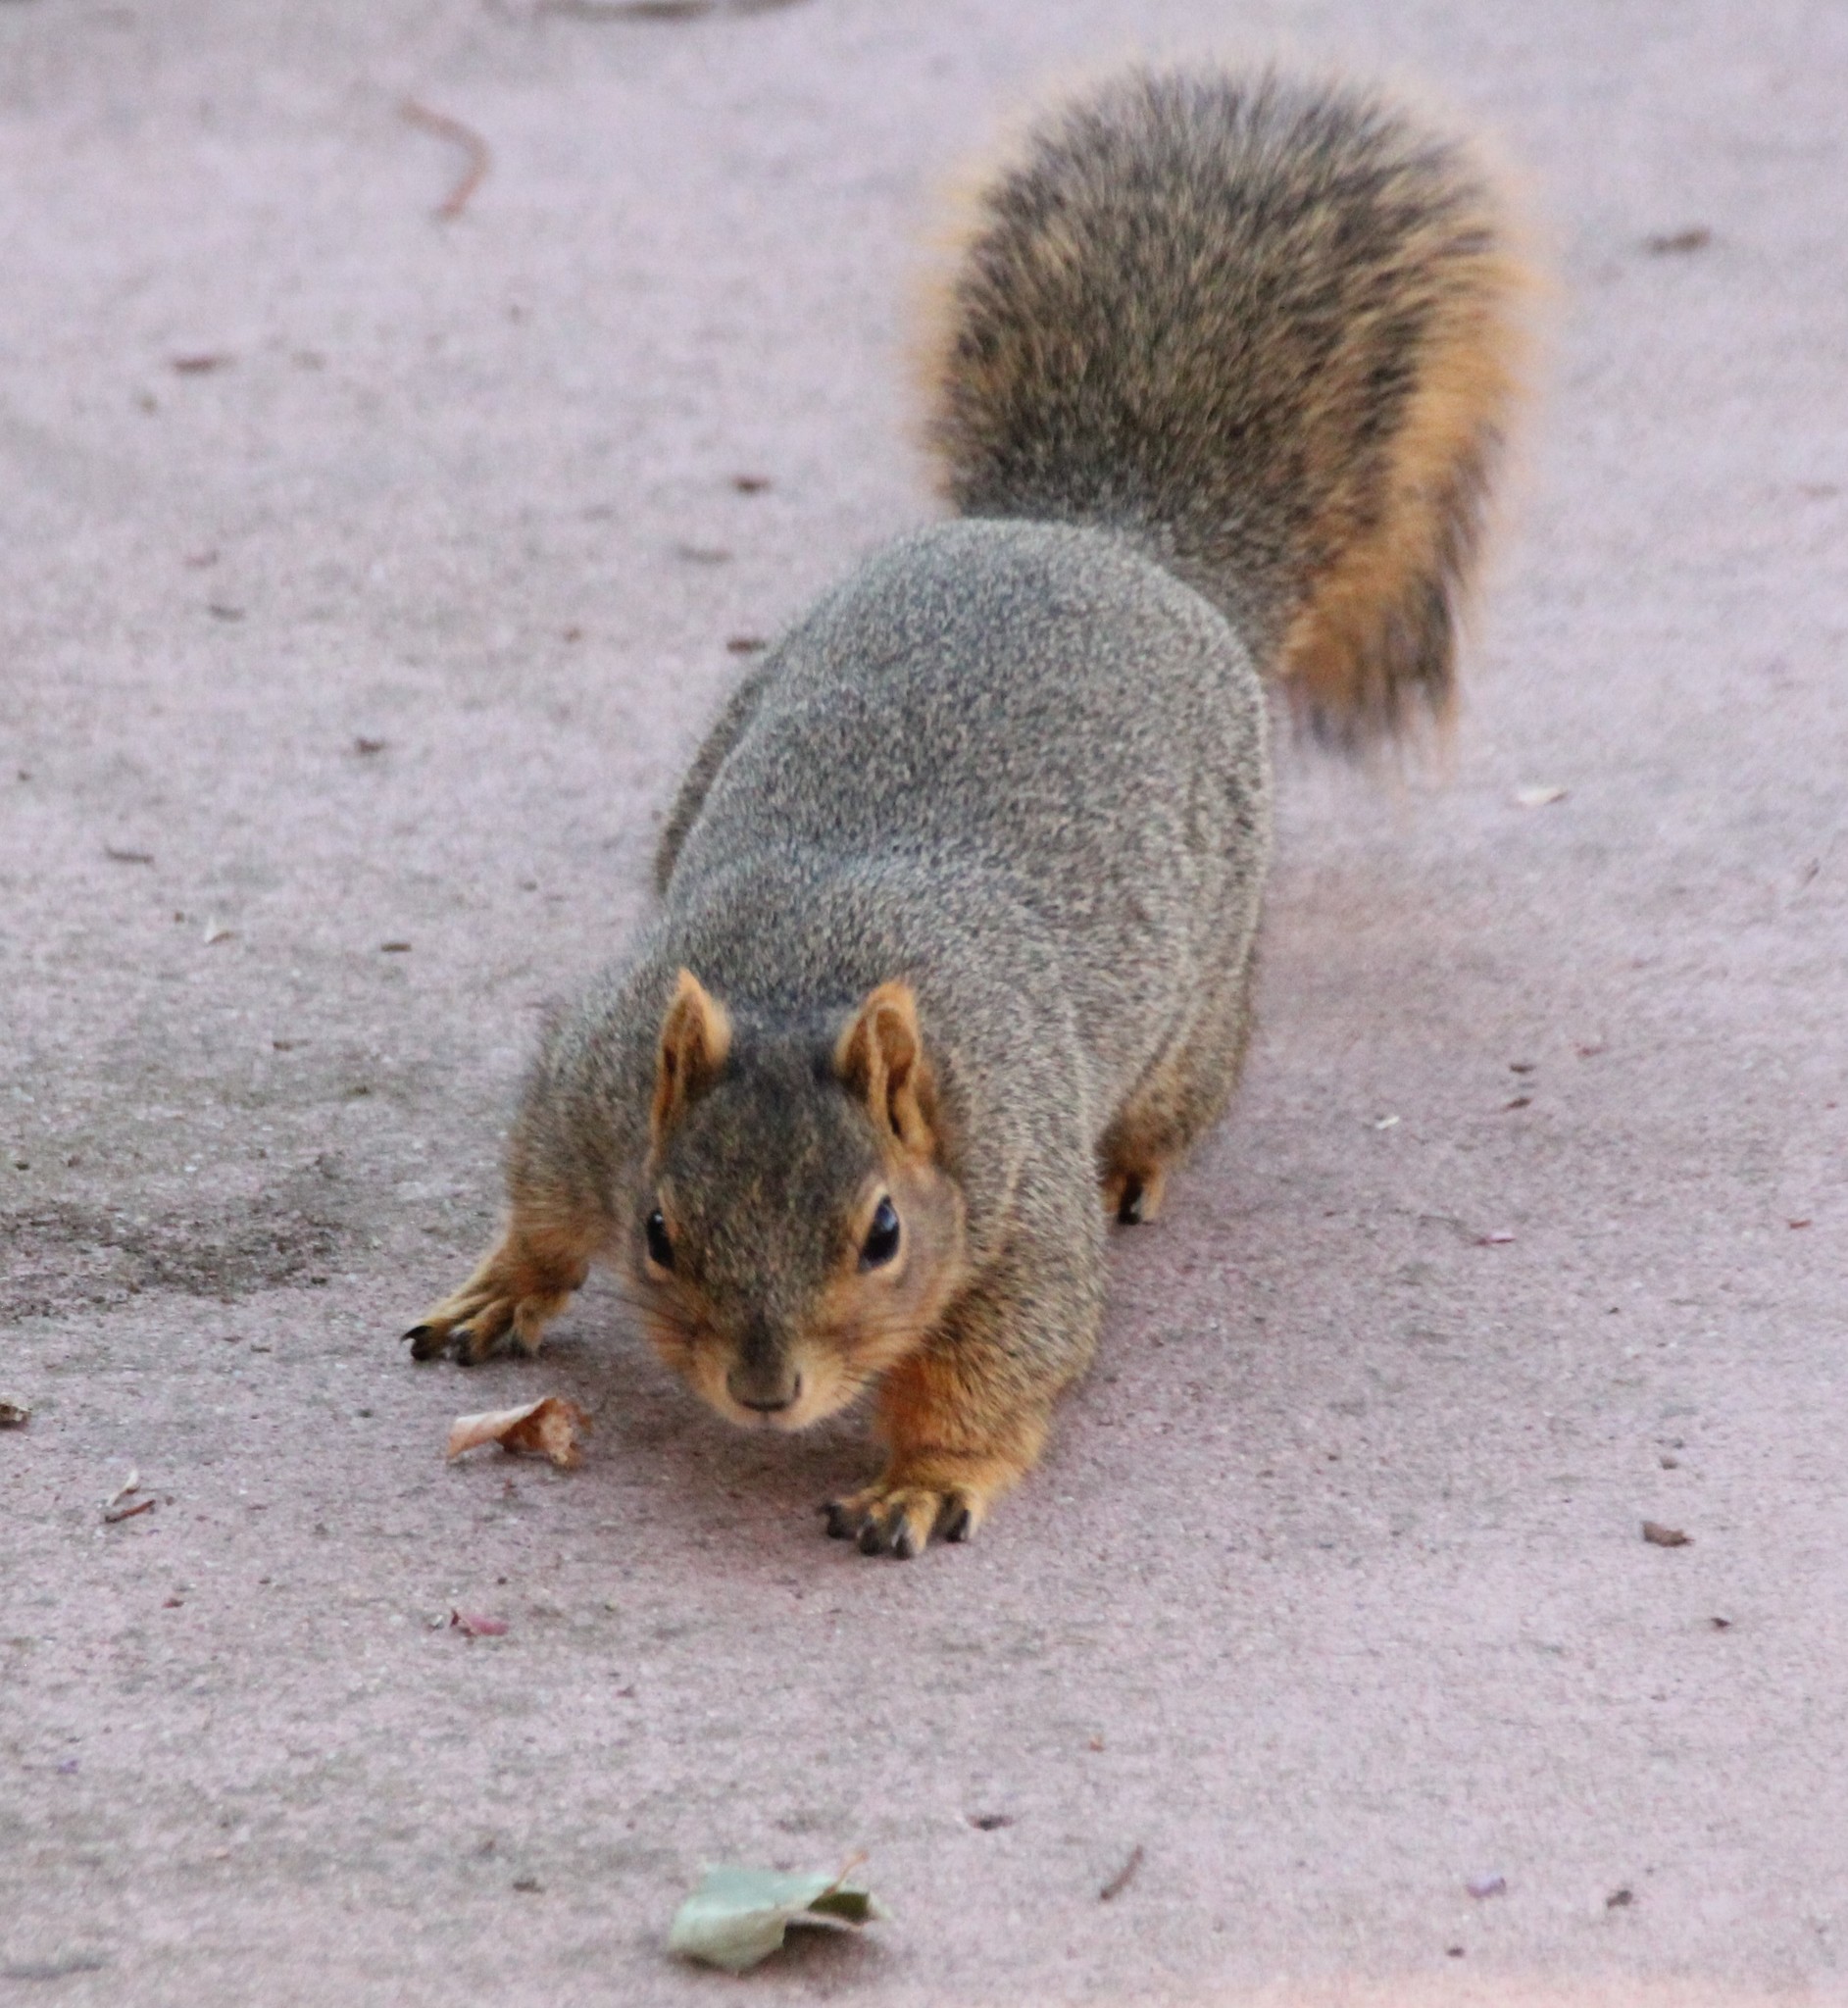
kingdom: Animalia
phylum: Chordata
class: Mammalia
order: Rodentia
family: Sciuridae
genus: Sciurus
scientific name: Sciurus niger
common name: Fox squirrel
